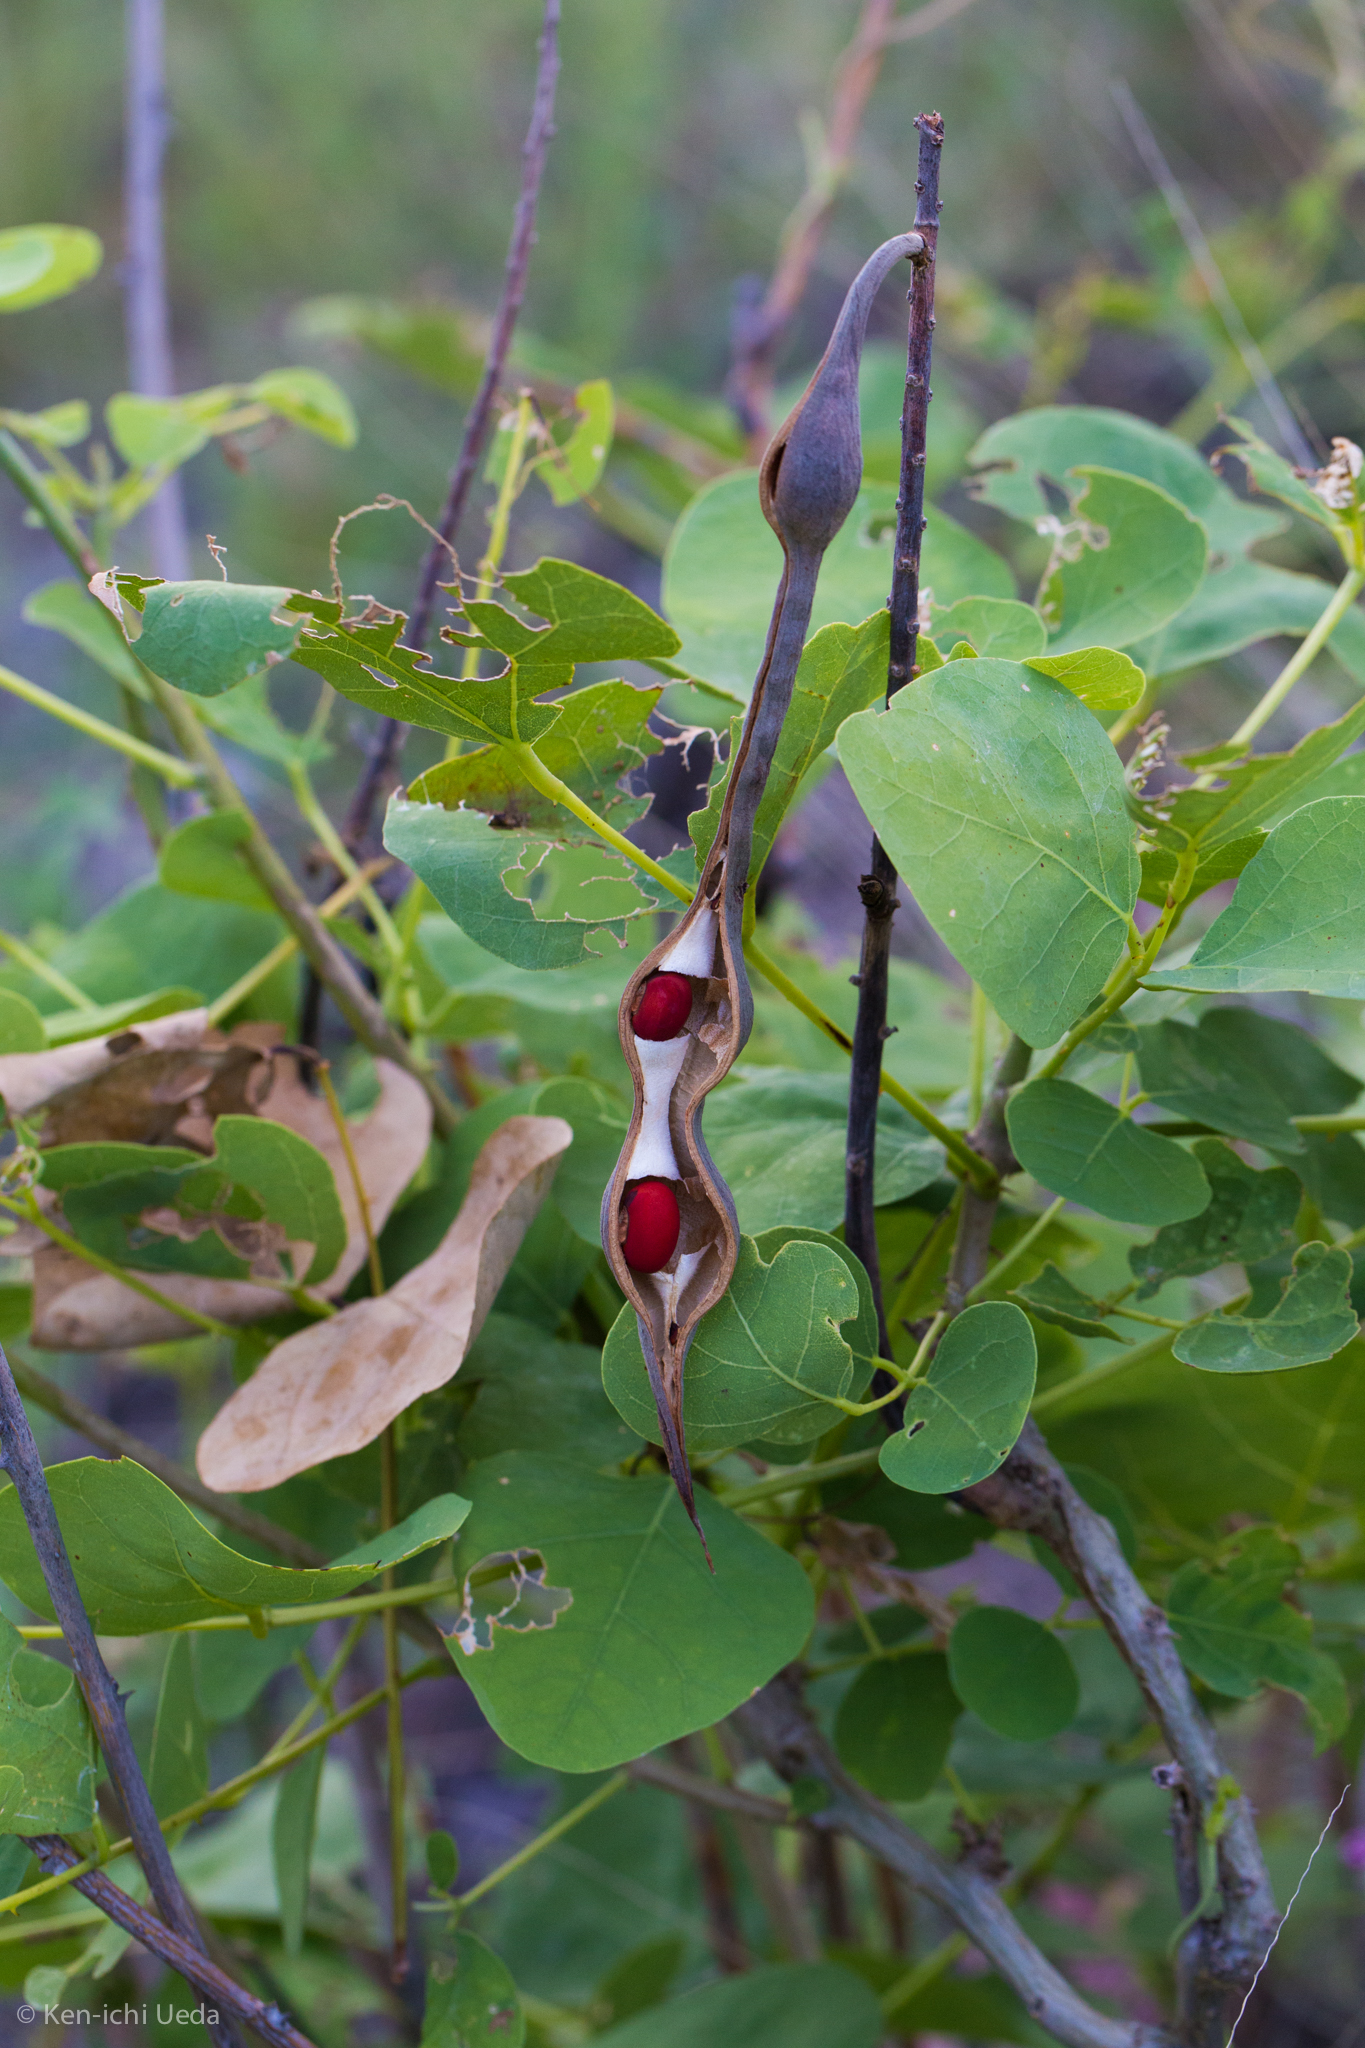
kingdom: Plantae
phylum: Tracheophyta
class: Magnoliopsida
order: Fabales
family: Fabaceae
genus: Erythrina
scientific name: Erythrina flabelliformis
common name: Chilicote
